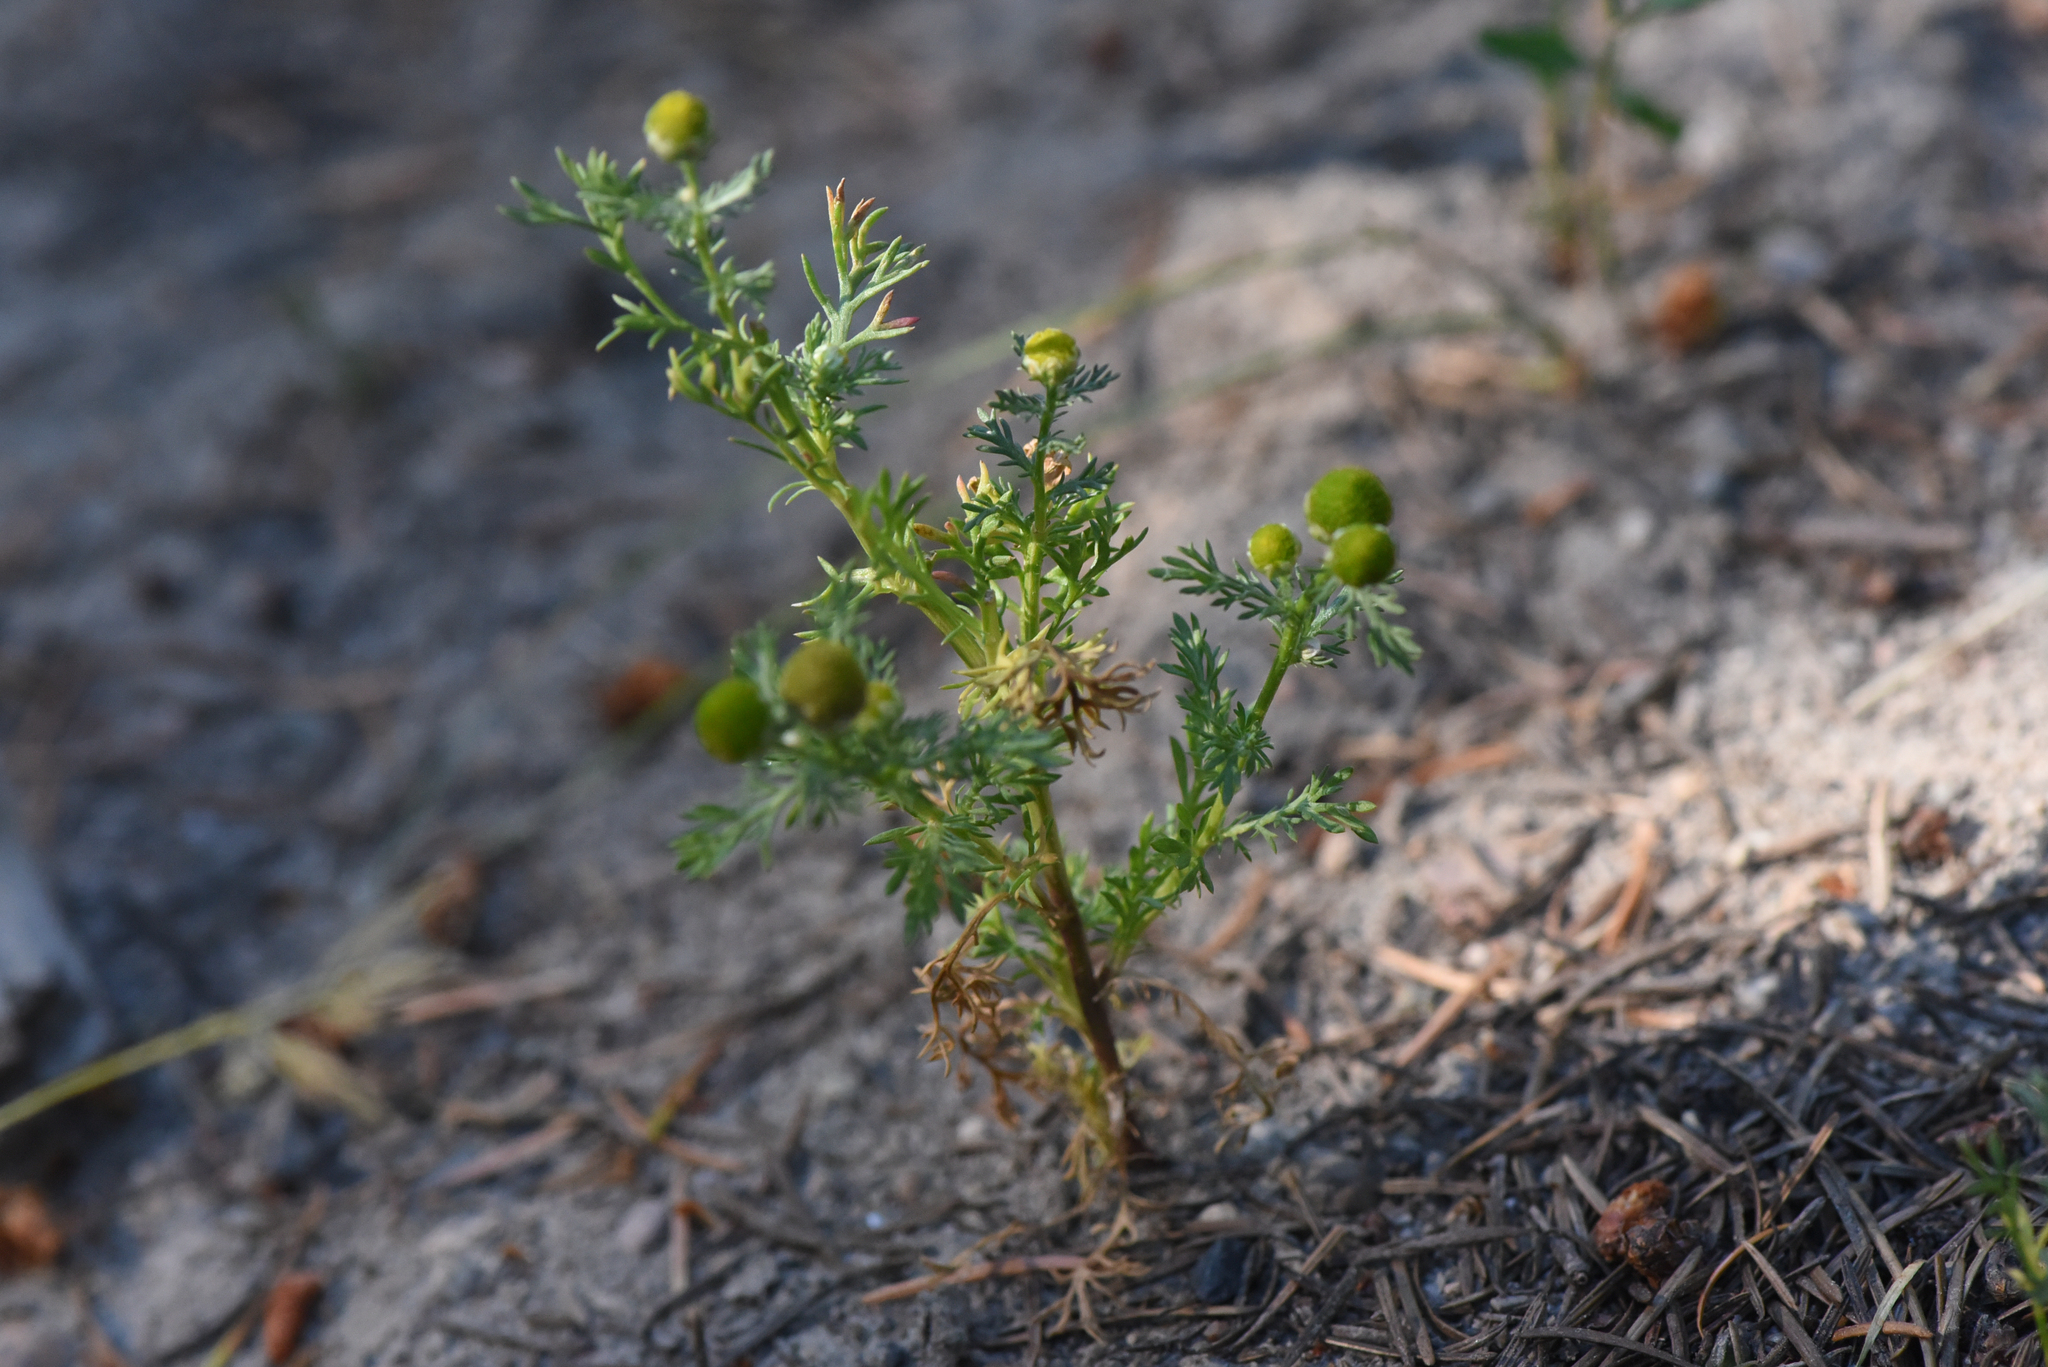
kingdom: Plantae
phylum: Tracheophyta
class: Magnoliopsida
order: Asterales
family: Asteraceae
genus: Matricaria
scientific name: Matricaria discoidea
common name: Disc mayweed
